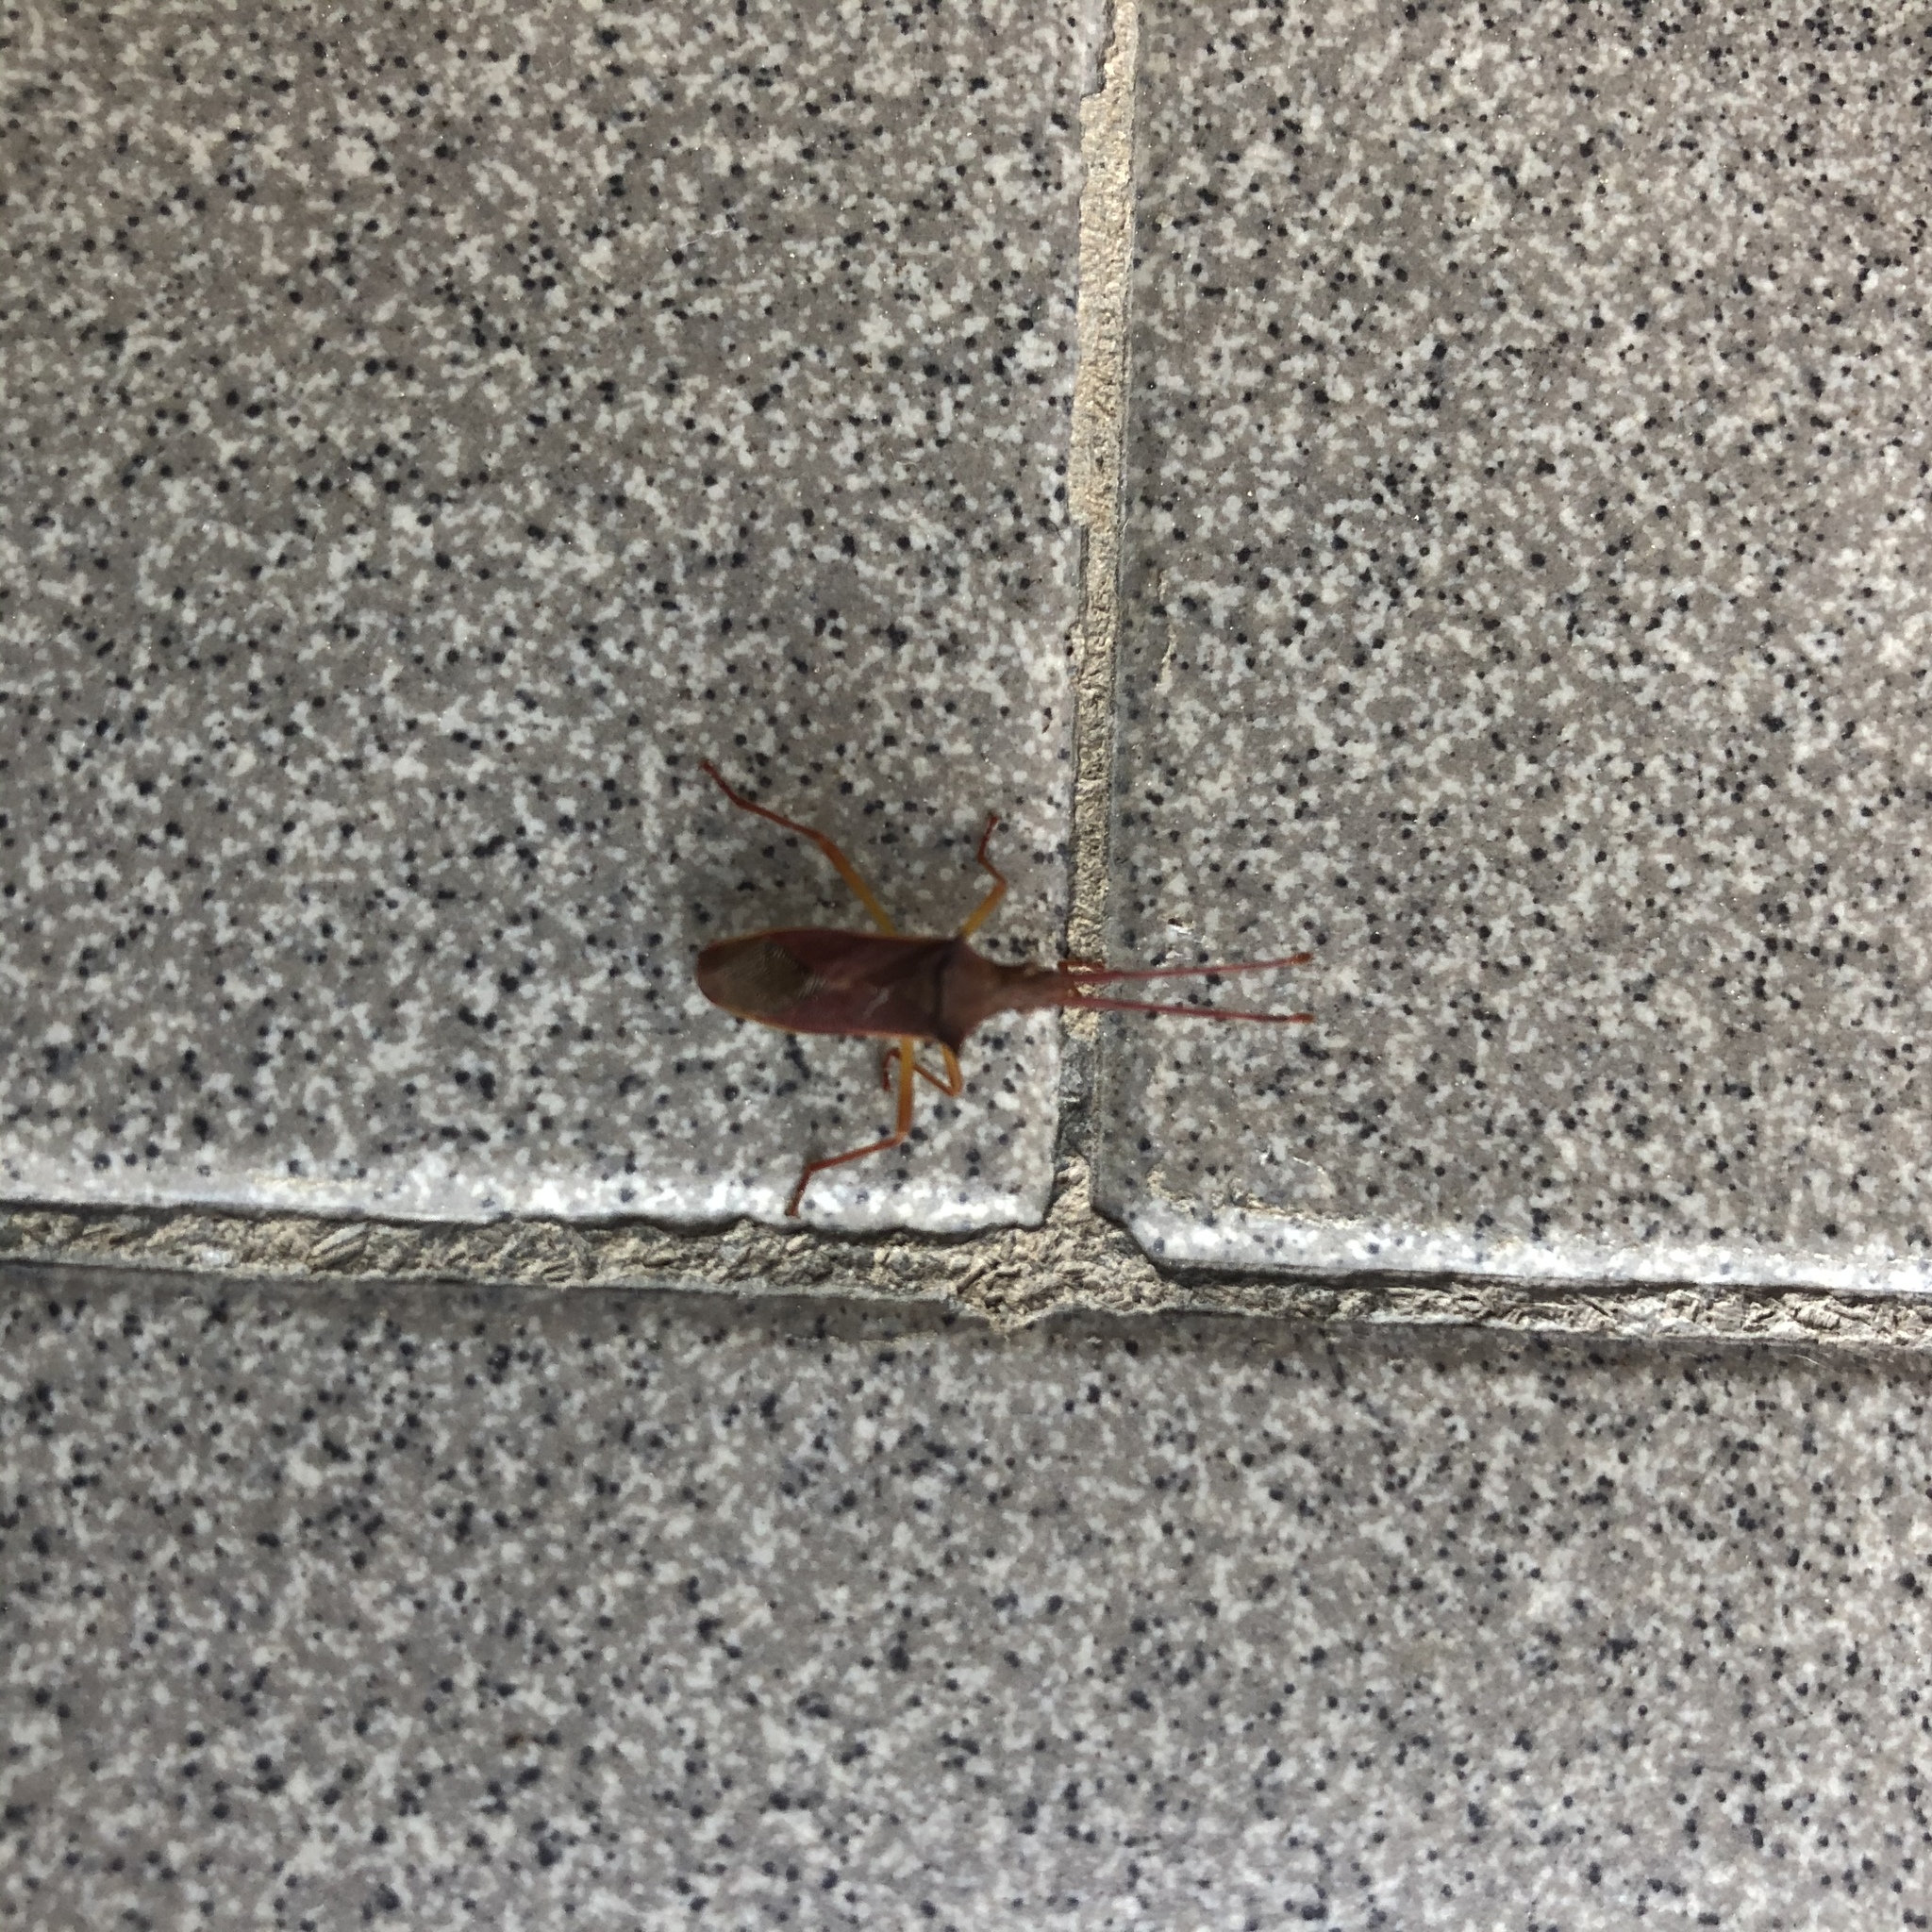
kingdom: Animalia
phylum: Arthropoda
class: Insecta
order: Hemiptera
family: Coreidae
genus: Gonocerus
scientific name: Gonocerus insidiator
